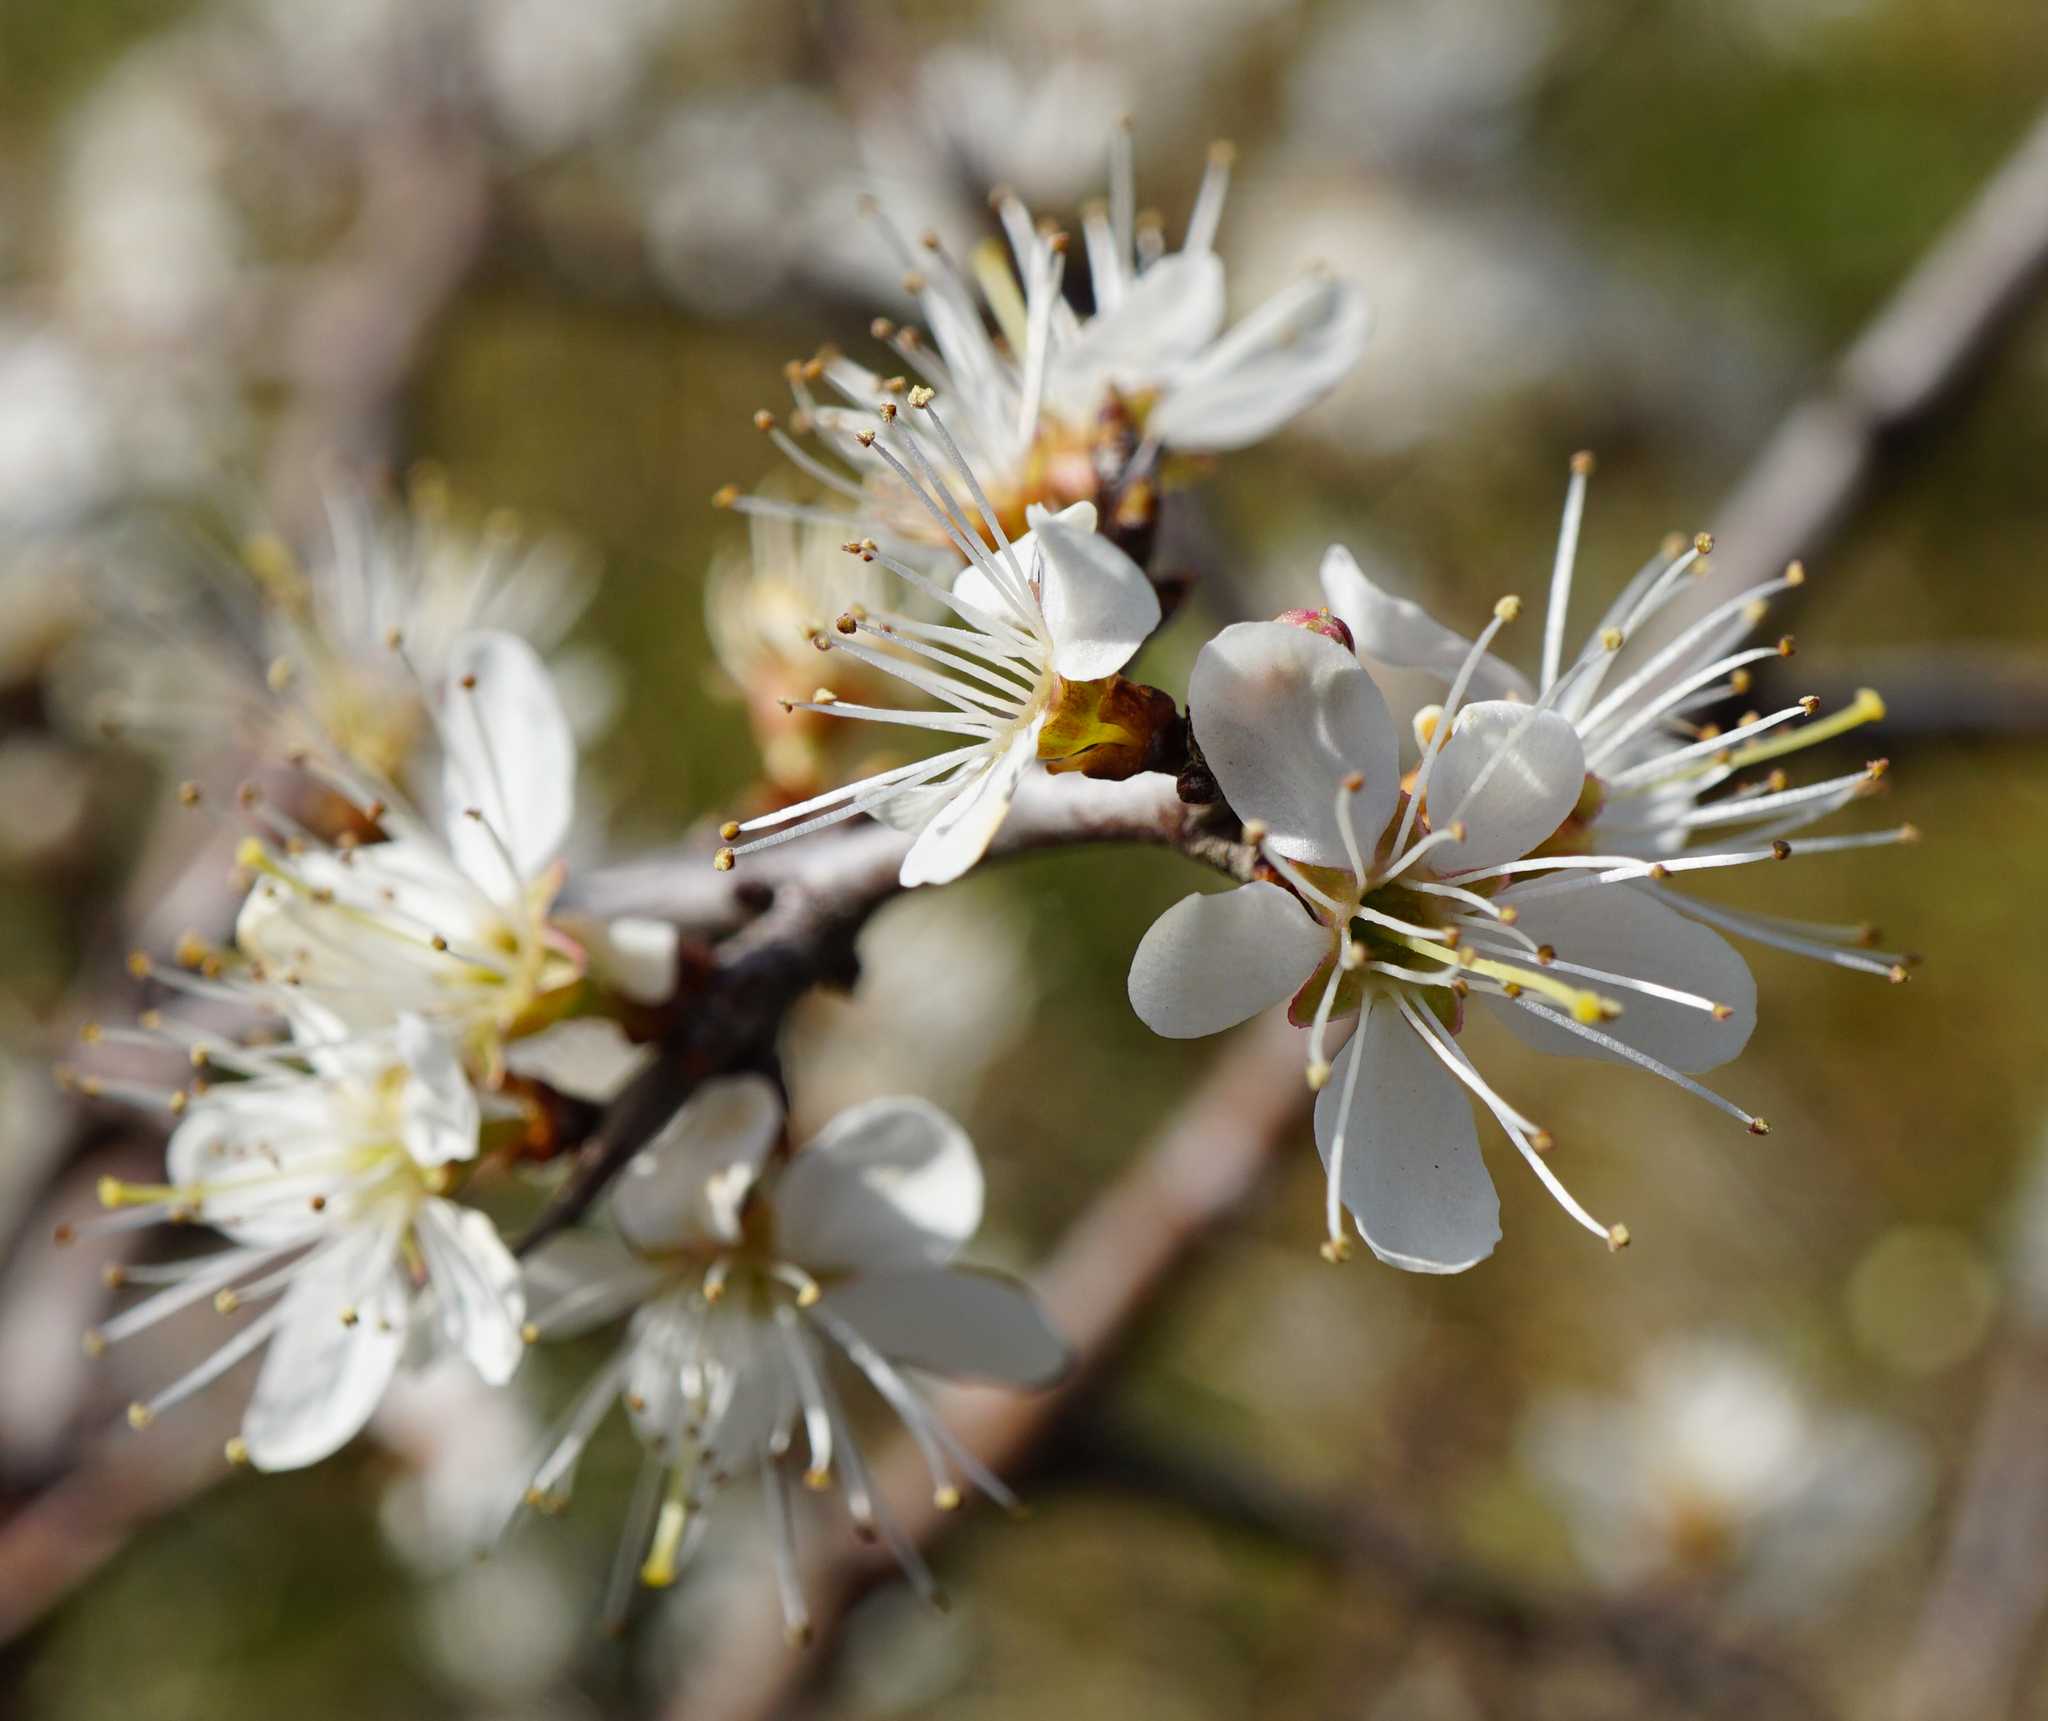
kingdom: Plantae
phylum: Tracheophyta
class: Magnoliopsida
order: Rosales
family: Rosaceae
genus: Prunus
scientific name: Prunus spinosa
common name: Blackthorn
